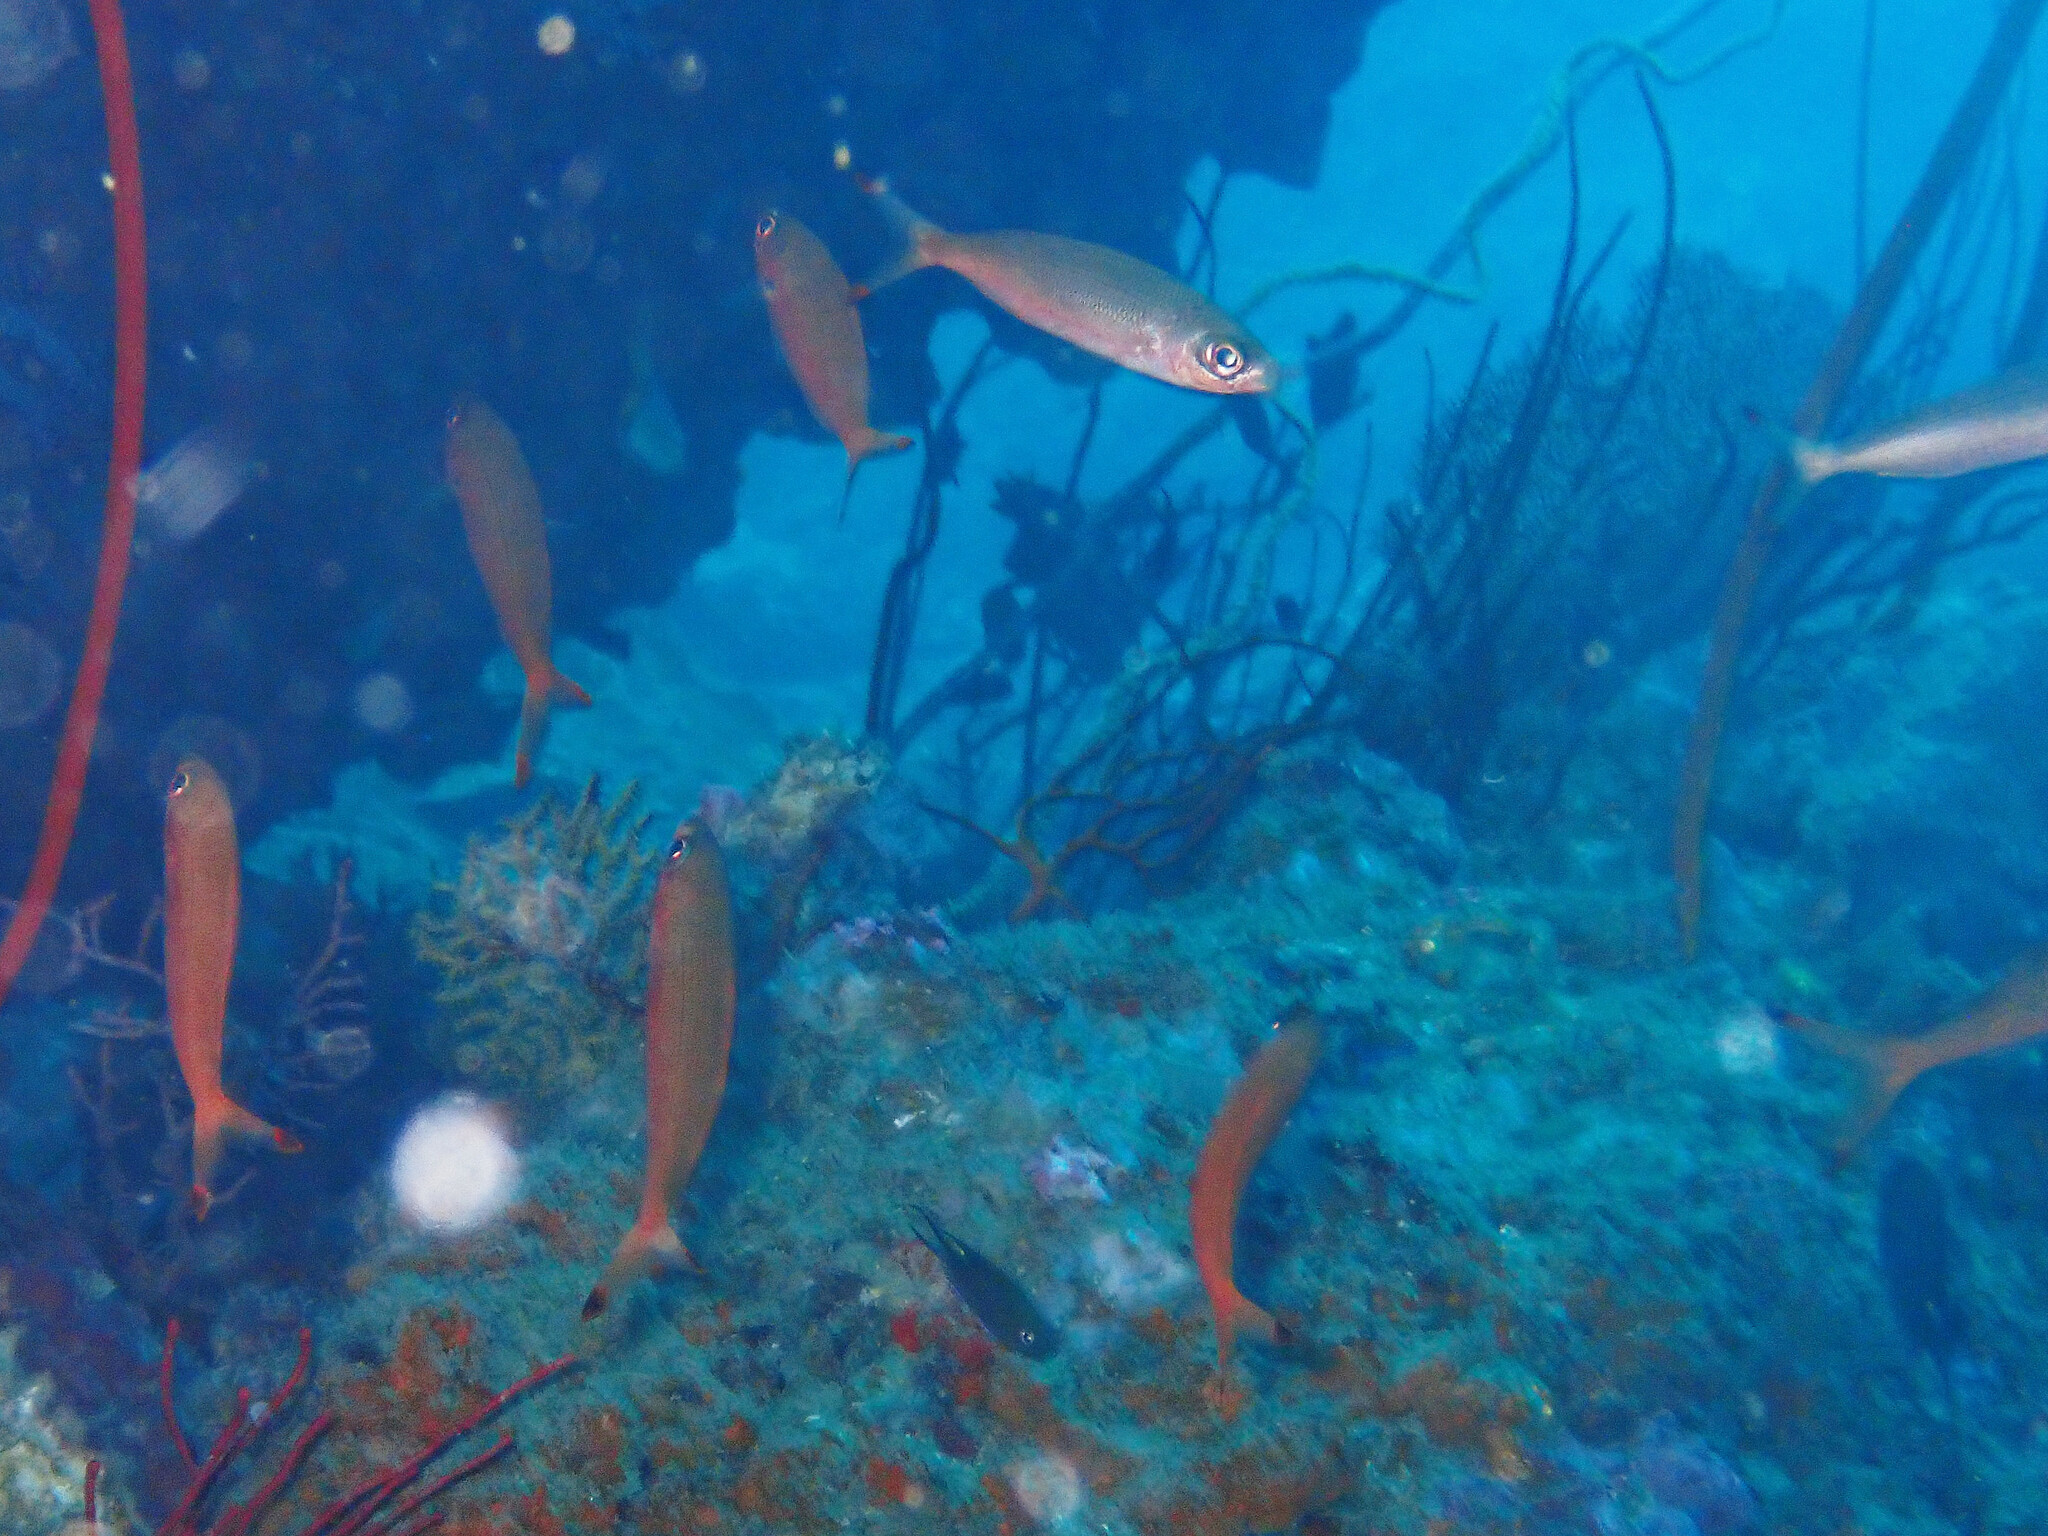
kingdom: Animalia
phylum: Chordata
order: Perciformes
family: Caesionidae
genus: Pterocaesio
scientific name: Pterocaesio pisang
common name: Banana fusilier
